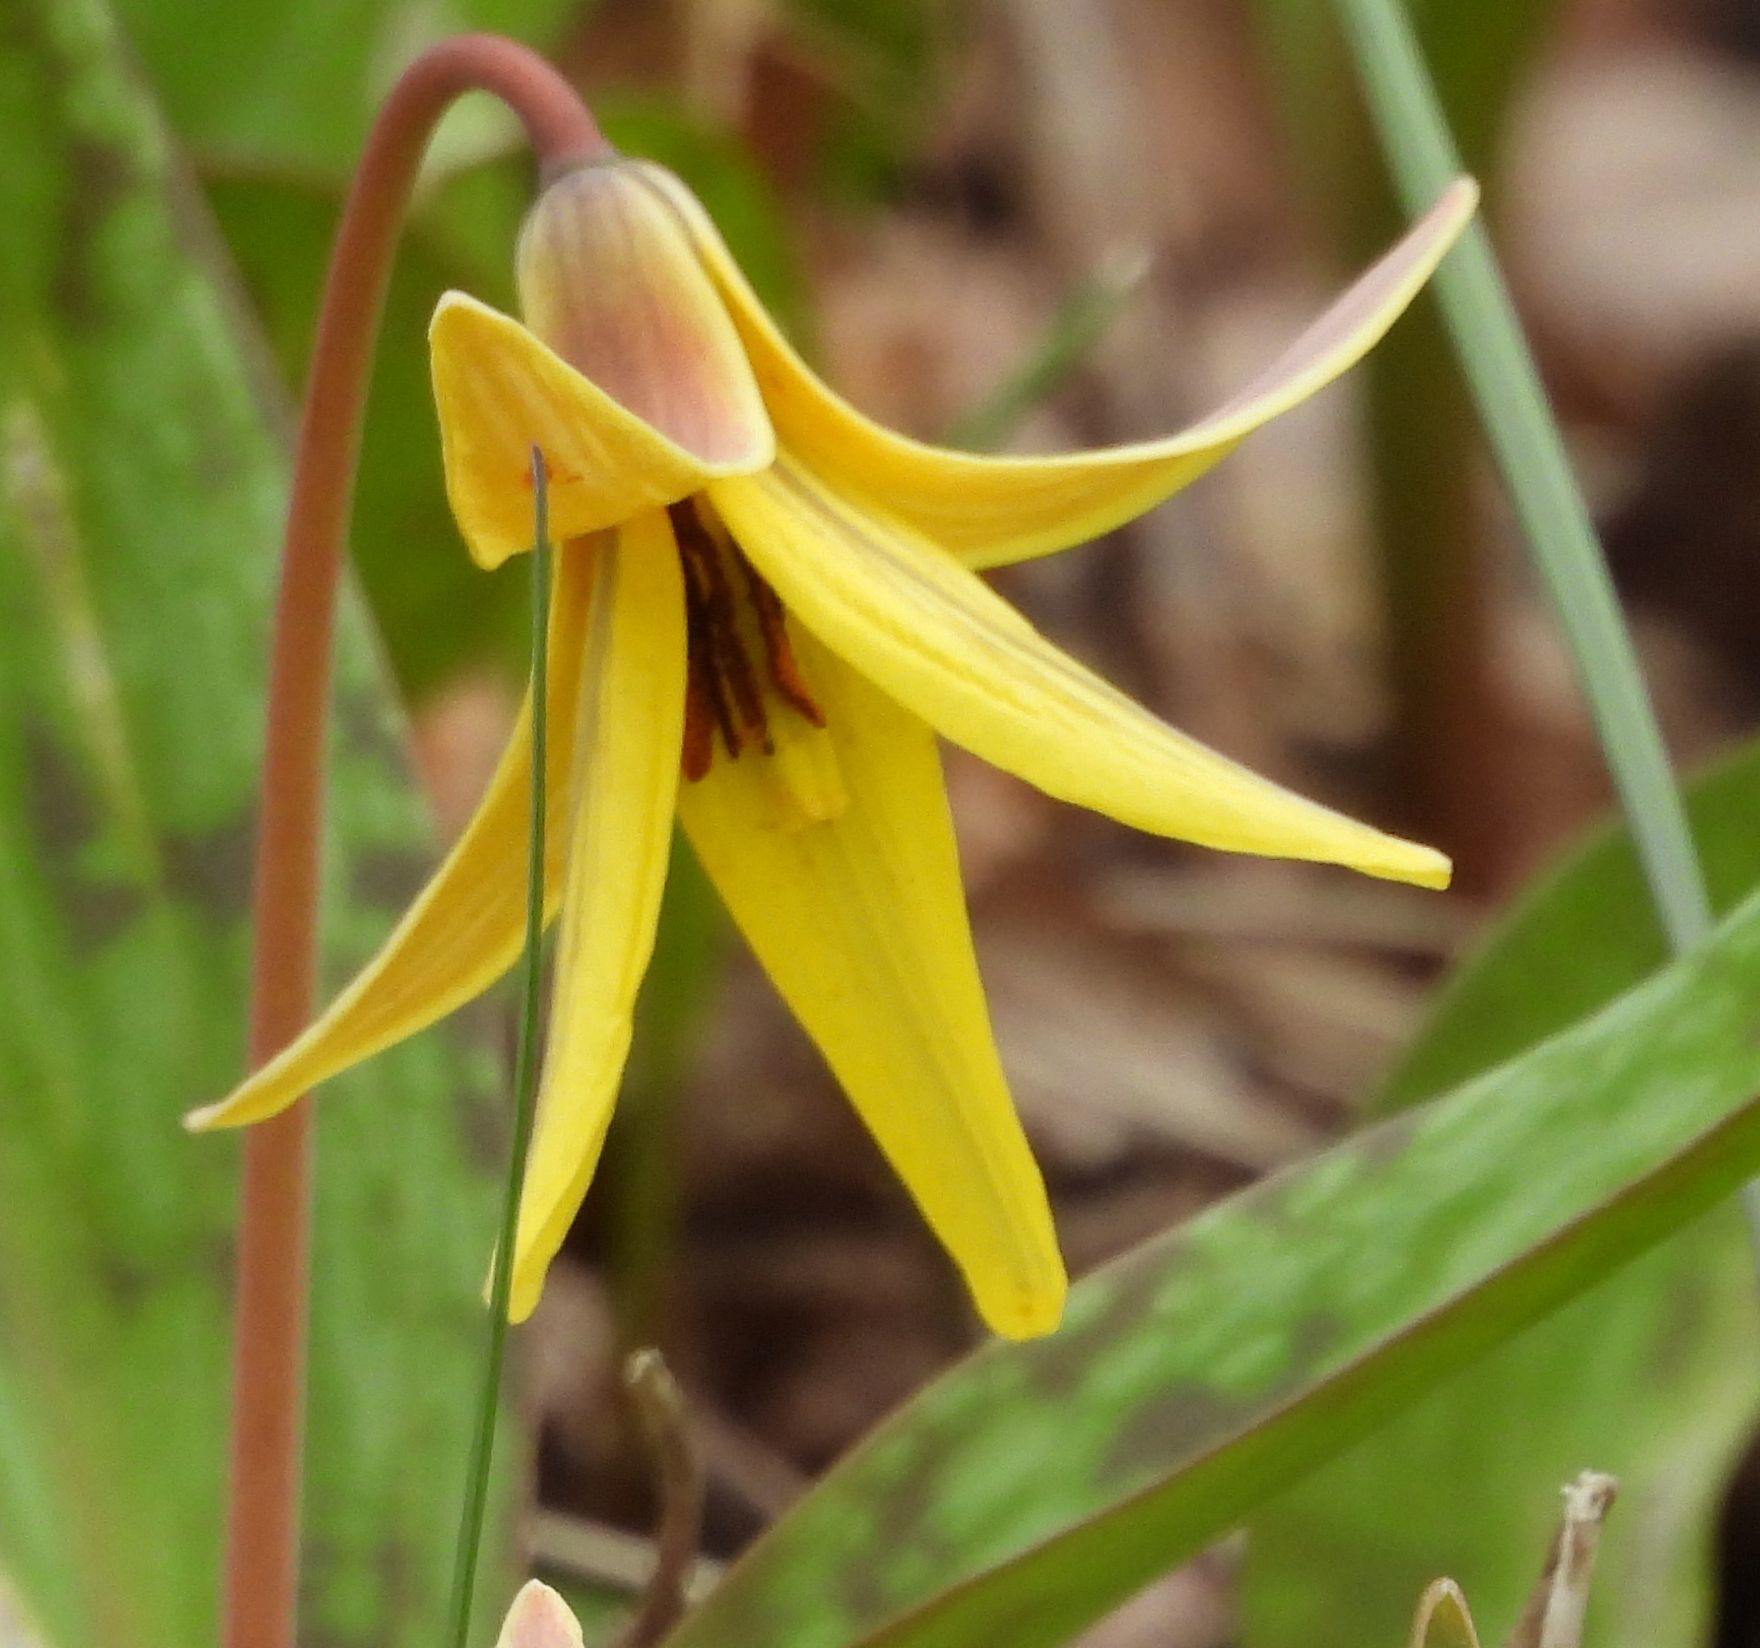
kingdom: Plantae
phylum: Tracheophyta
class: Liliopsida
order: Liliales
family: Liliaceae
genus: Erythronium
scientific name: Erythronium americanum
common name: Yellow adder's-tongue
